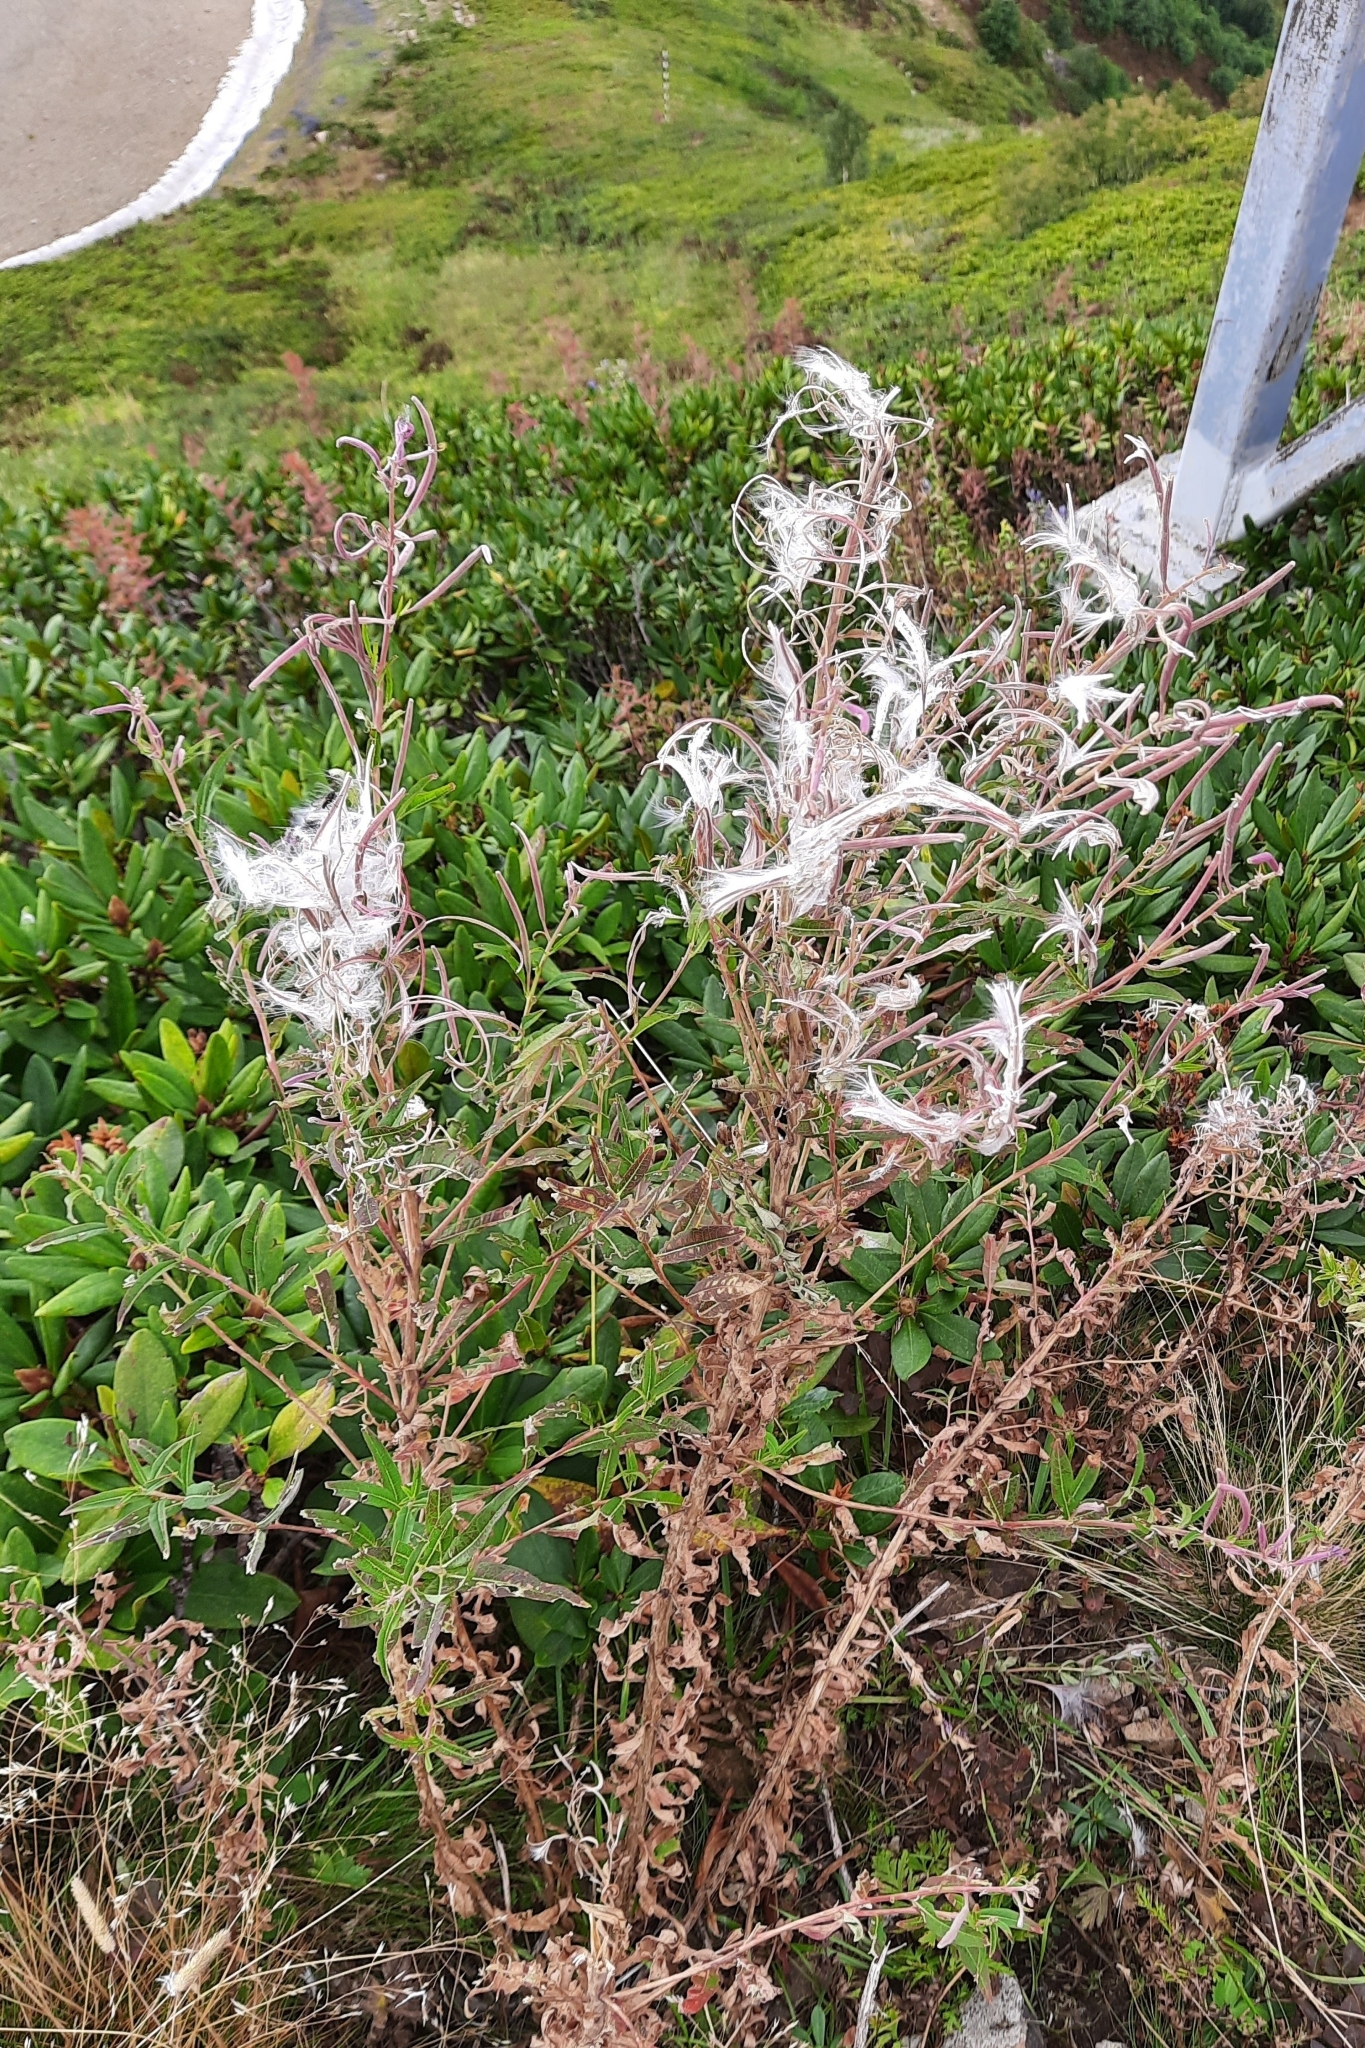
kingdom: Plantae
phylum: Tracheophyta
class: Magnoliopsida
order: Myrtales
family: Onagraceae
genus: Chamaenerion
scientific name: Chamaenerion angustifolium
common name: Fireweed
